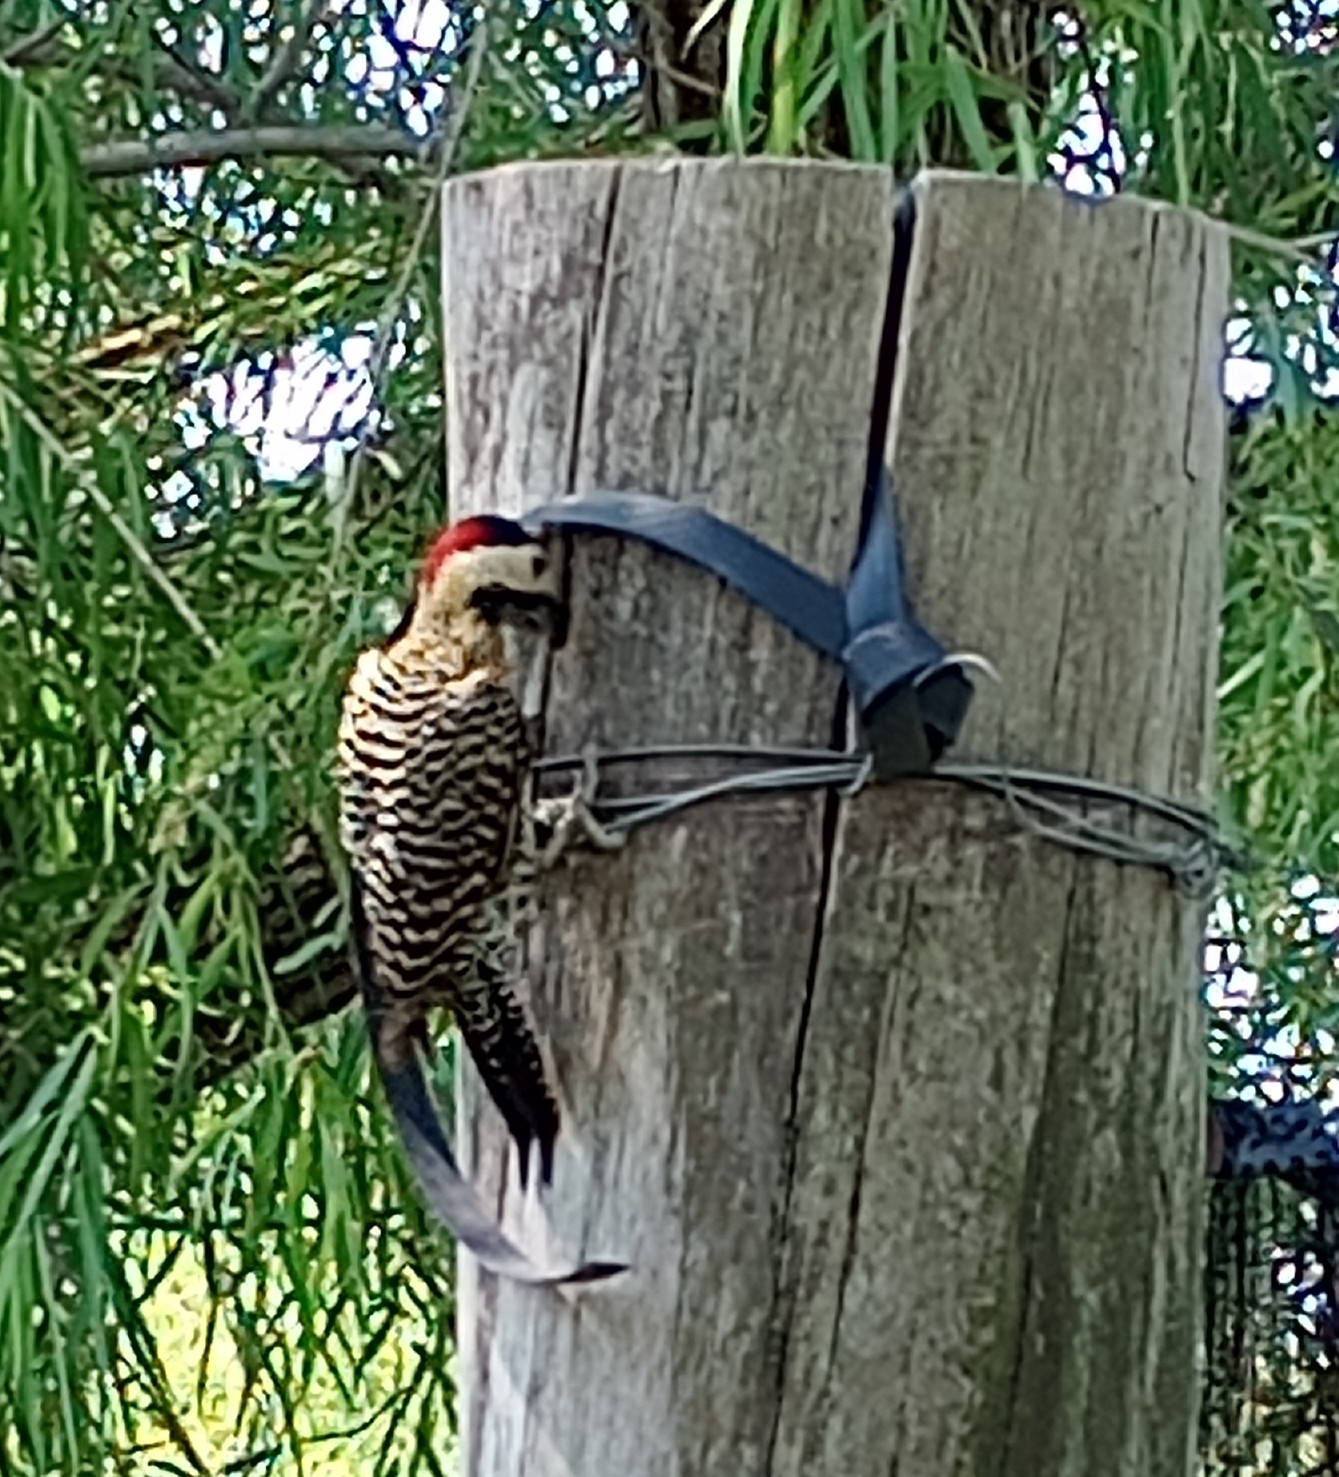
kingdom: Animalia
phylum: Chordata
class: Aves
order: Piciformes
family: Picidae
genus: Colaptes
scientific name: Colaptes melanochloros
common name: Green-barred woodpecker
